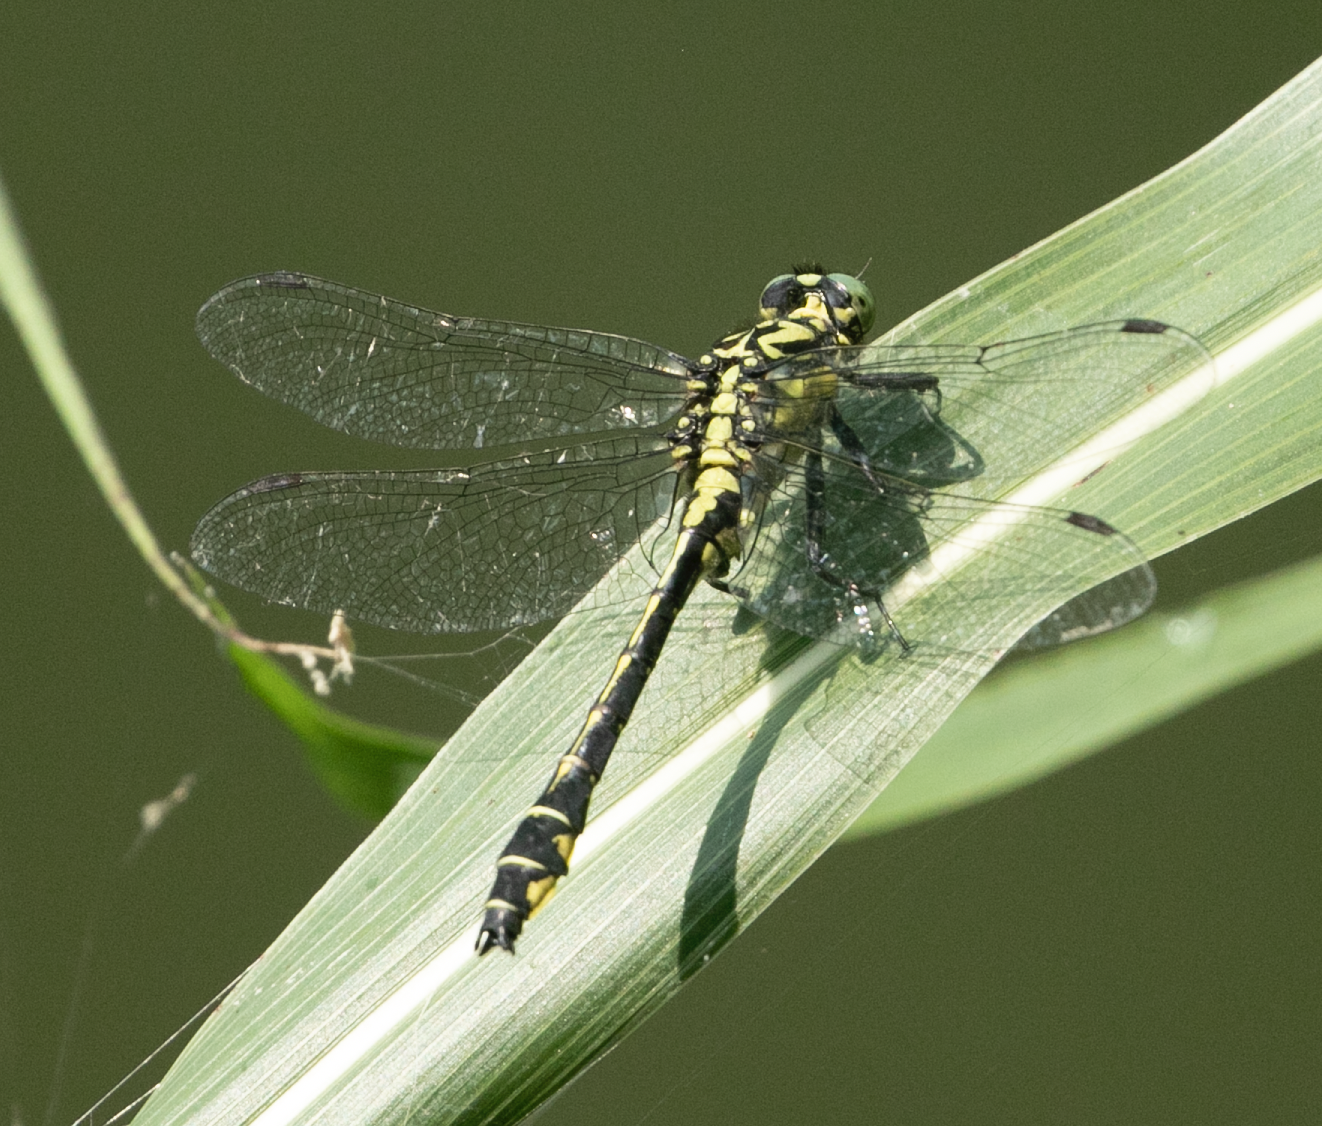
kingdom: Animalia
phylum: Arthropoda
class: Insecta
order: Odonata
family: Gomphidae
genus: Gomphus
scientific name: Gomphus vulgatissimus
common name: Club-tailed dragonfly
